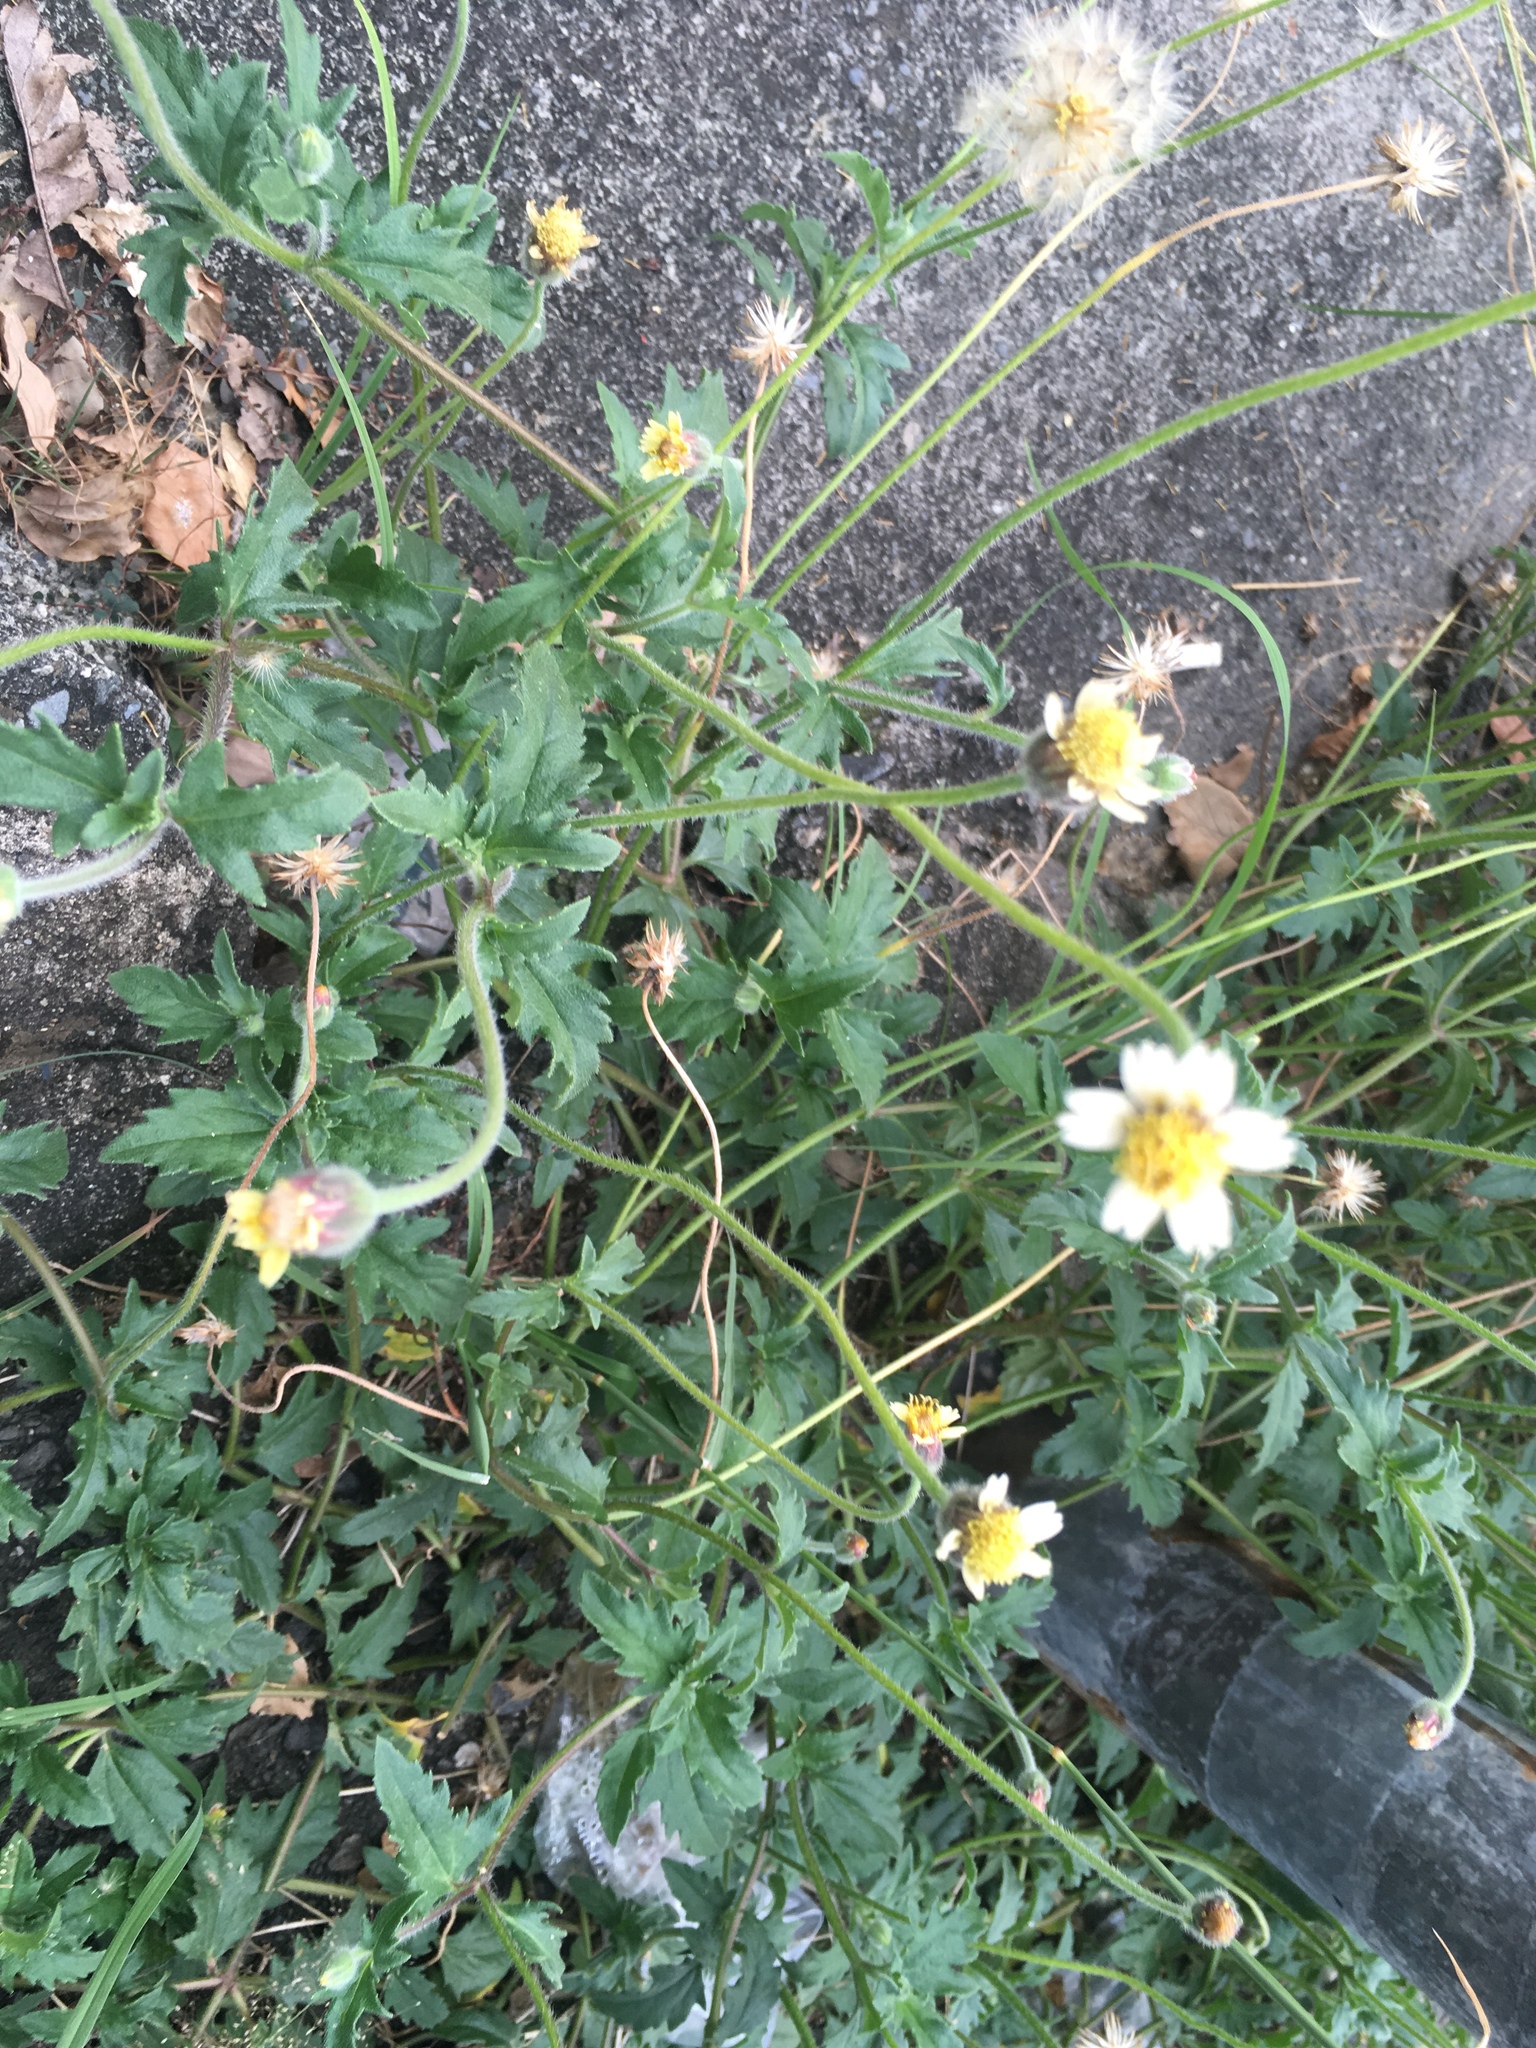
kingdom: Plantae
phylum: Tracheophyta
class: Magnoliopsida
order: Asterales
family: Asteraceae
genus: Tridax
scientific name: Tridax procumbens
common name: Coatbuttons
